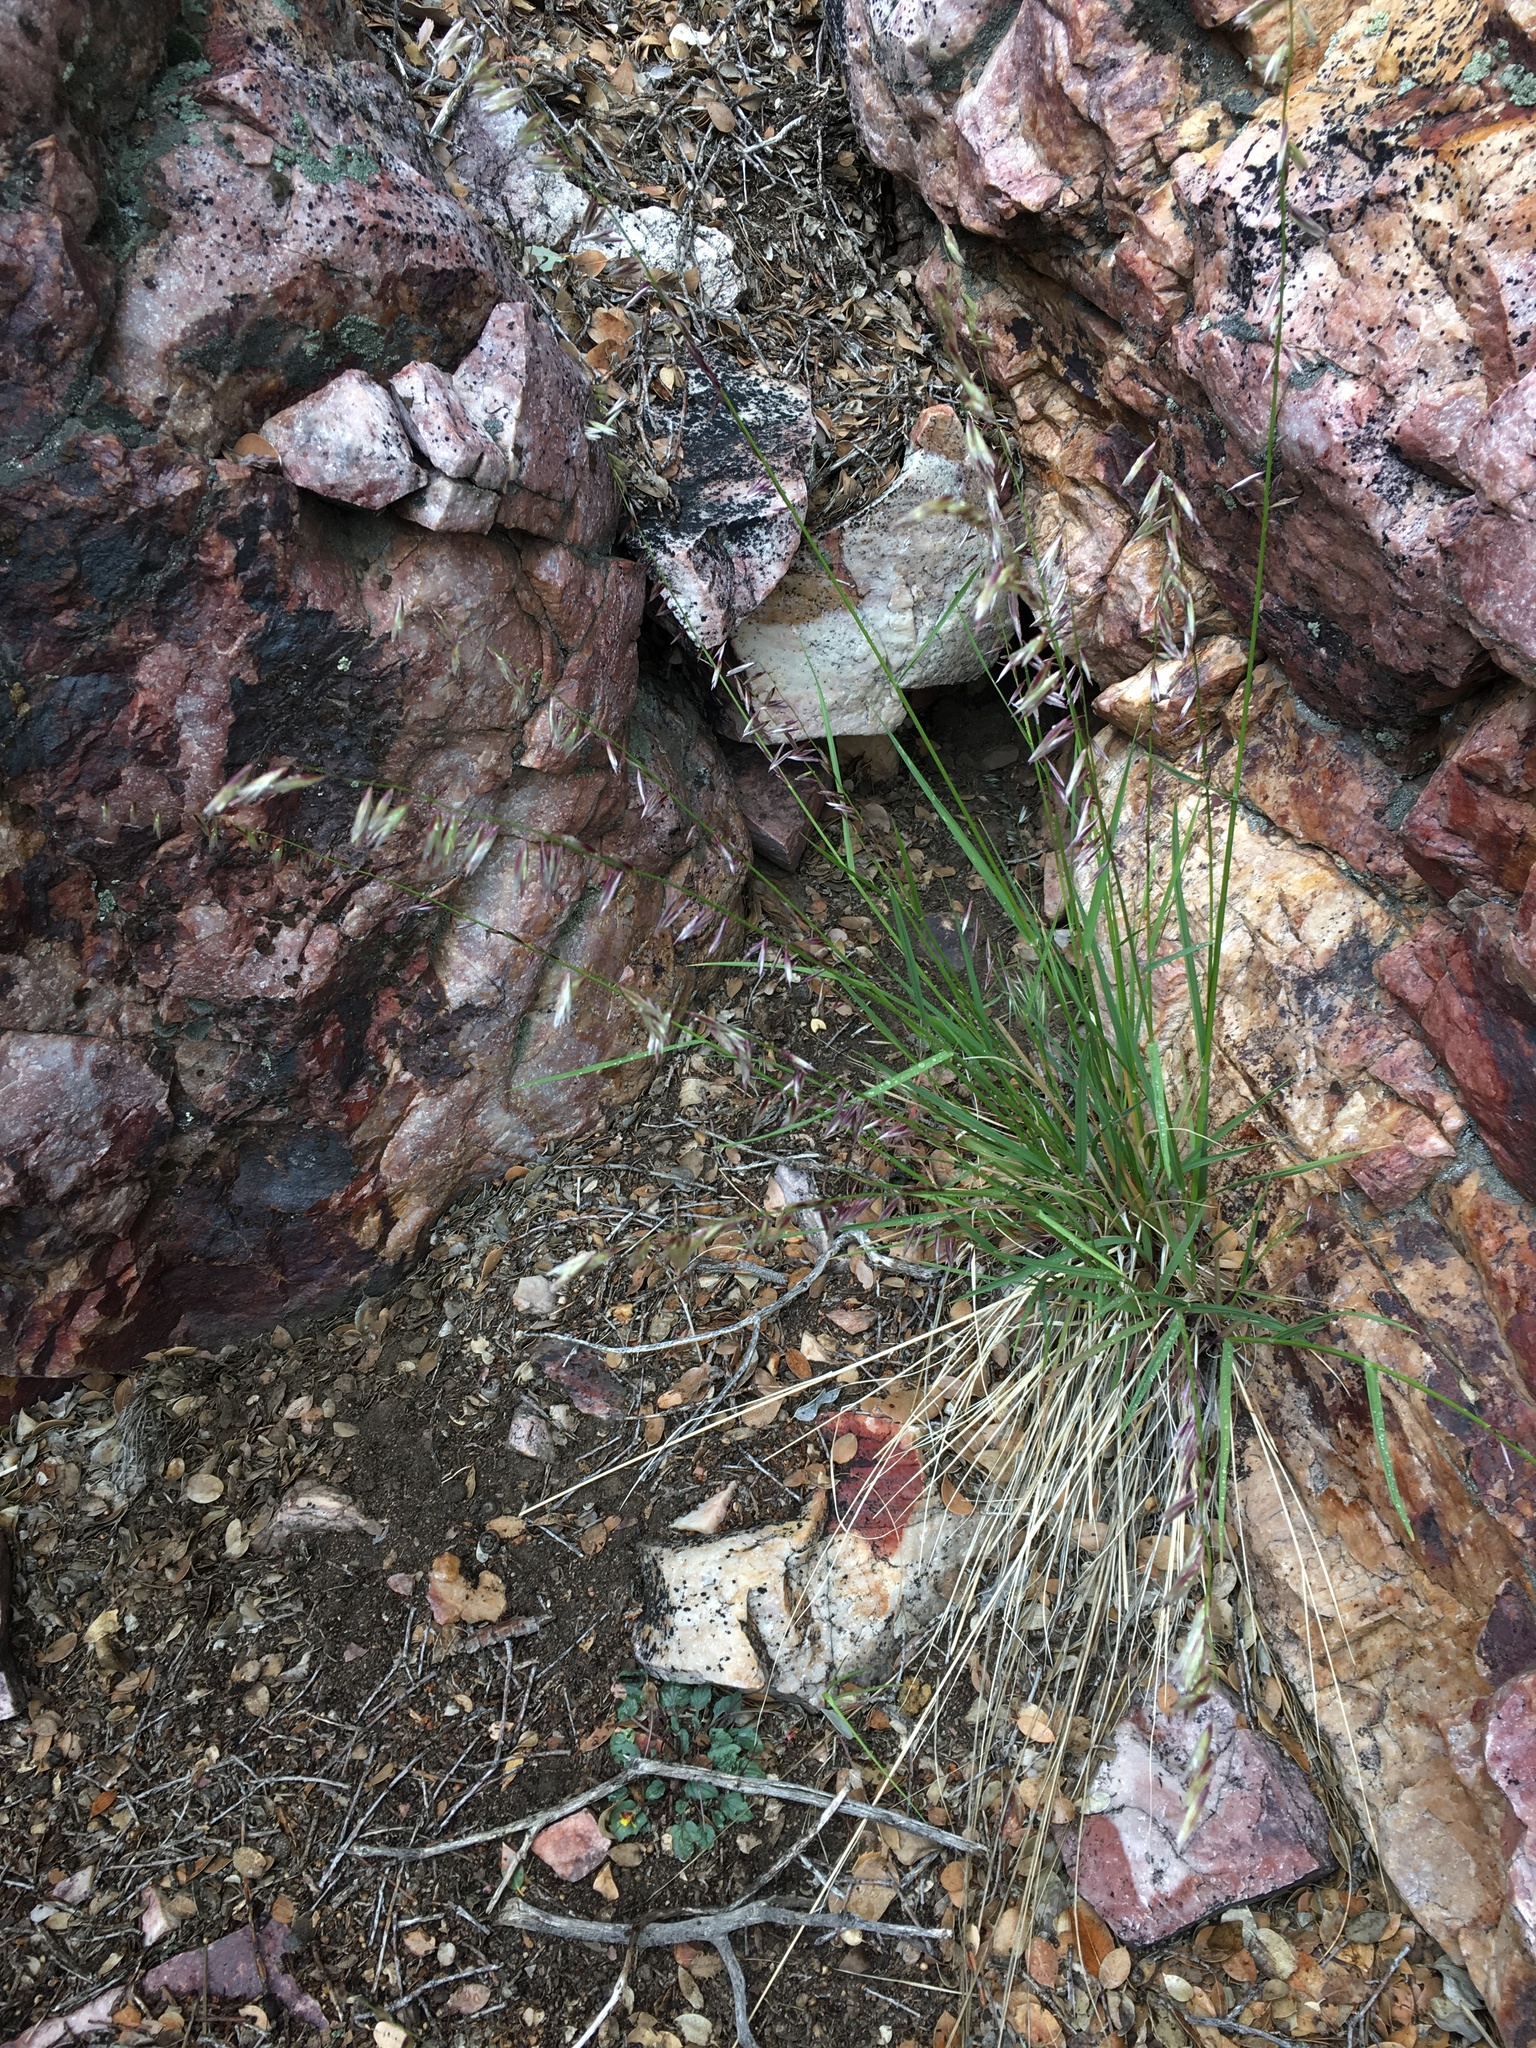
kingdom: Plantae
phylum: Tracheophyta
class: Liliopsida
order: Poales
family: Poaceae
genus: Melica
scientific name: Melica stricta
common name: Rock melic
